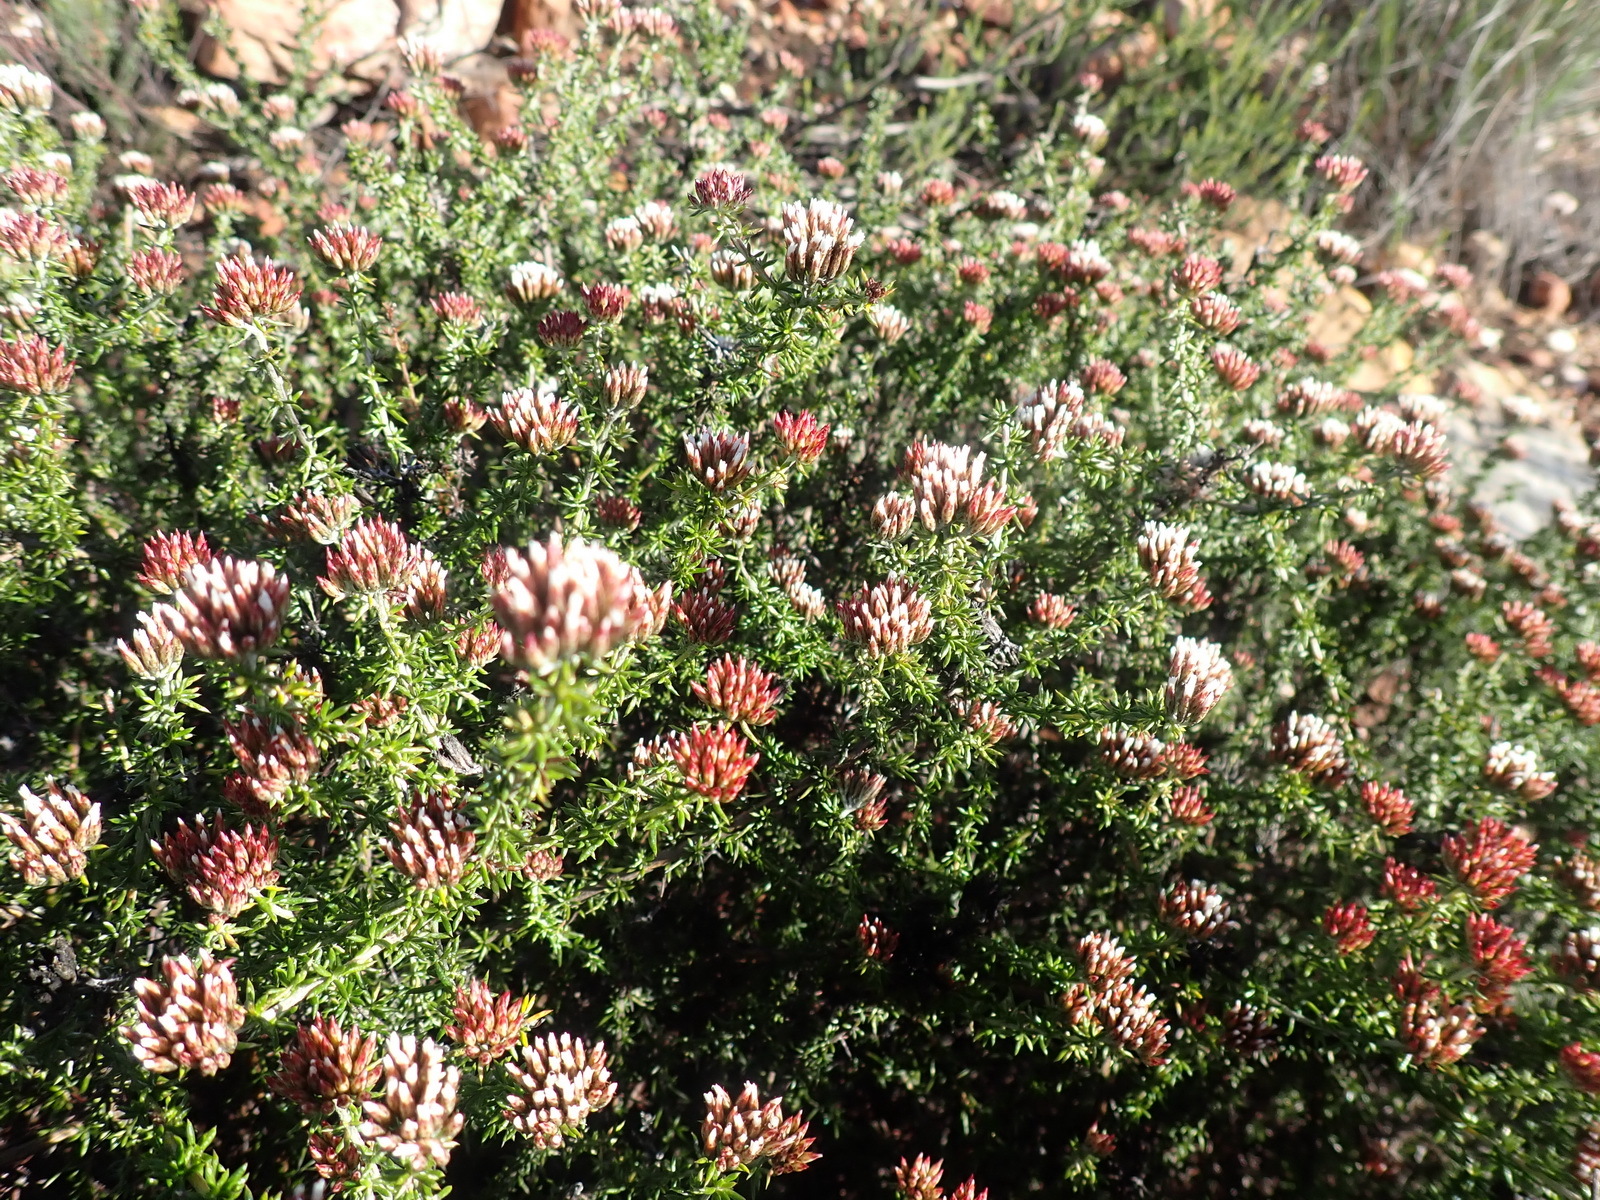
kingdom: Plantae
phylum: Tracheophyta
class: Magnoliopsida
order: Asterales
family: Asteraceae
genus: Metalasia
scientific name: Metalasia massonii
